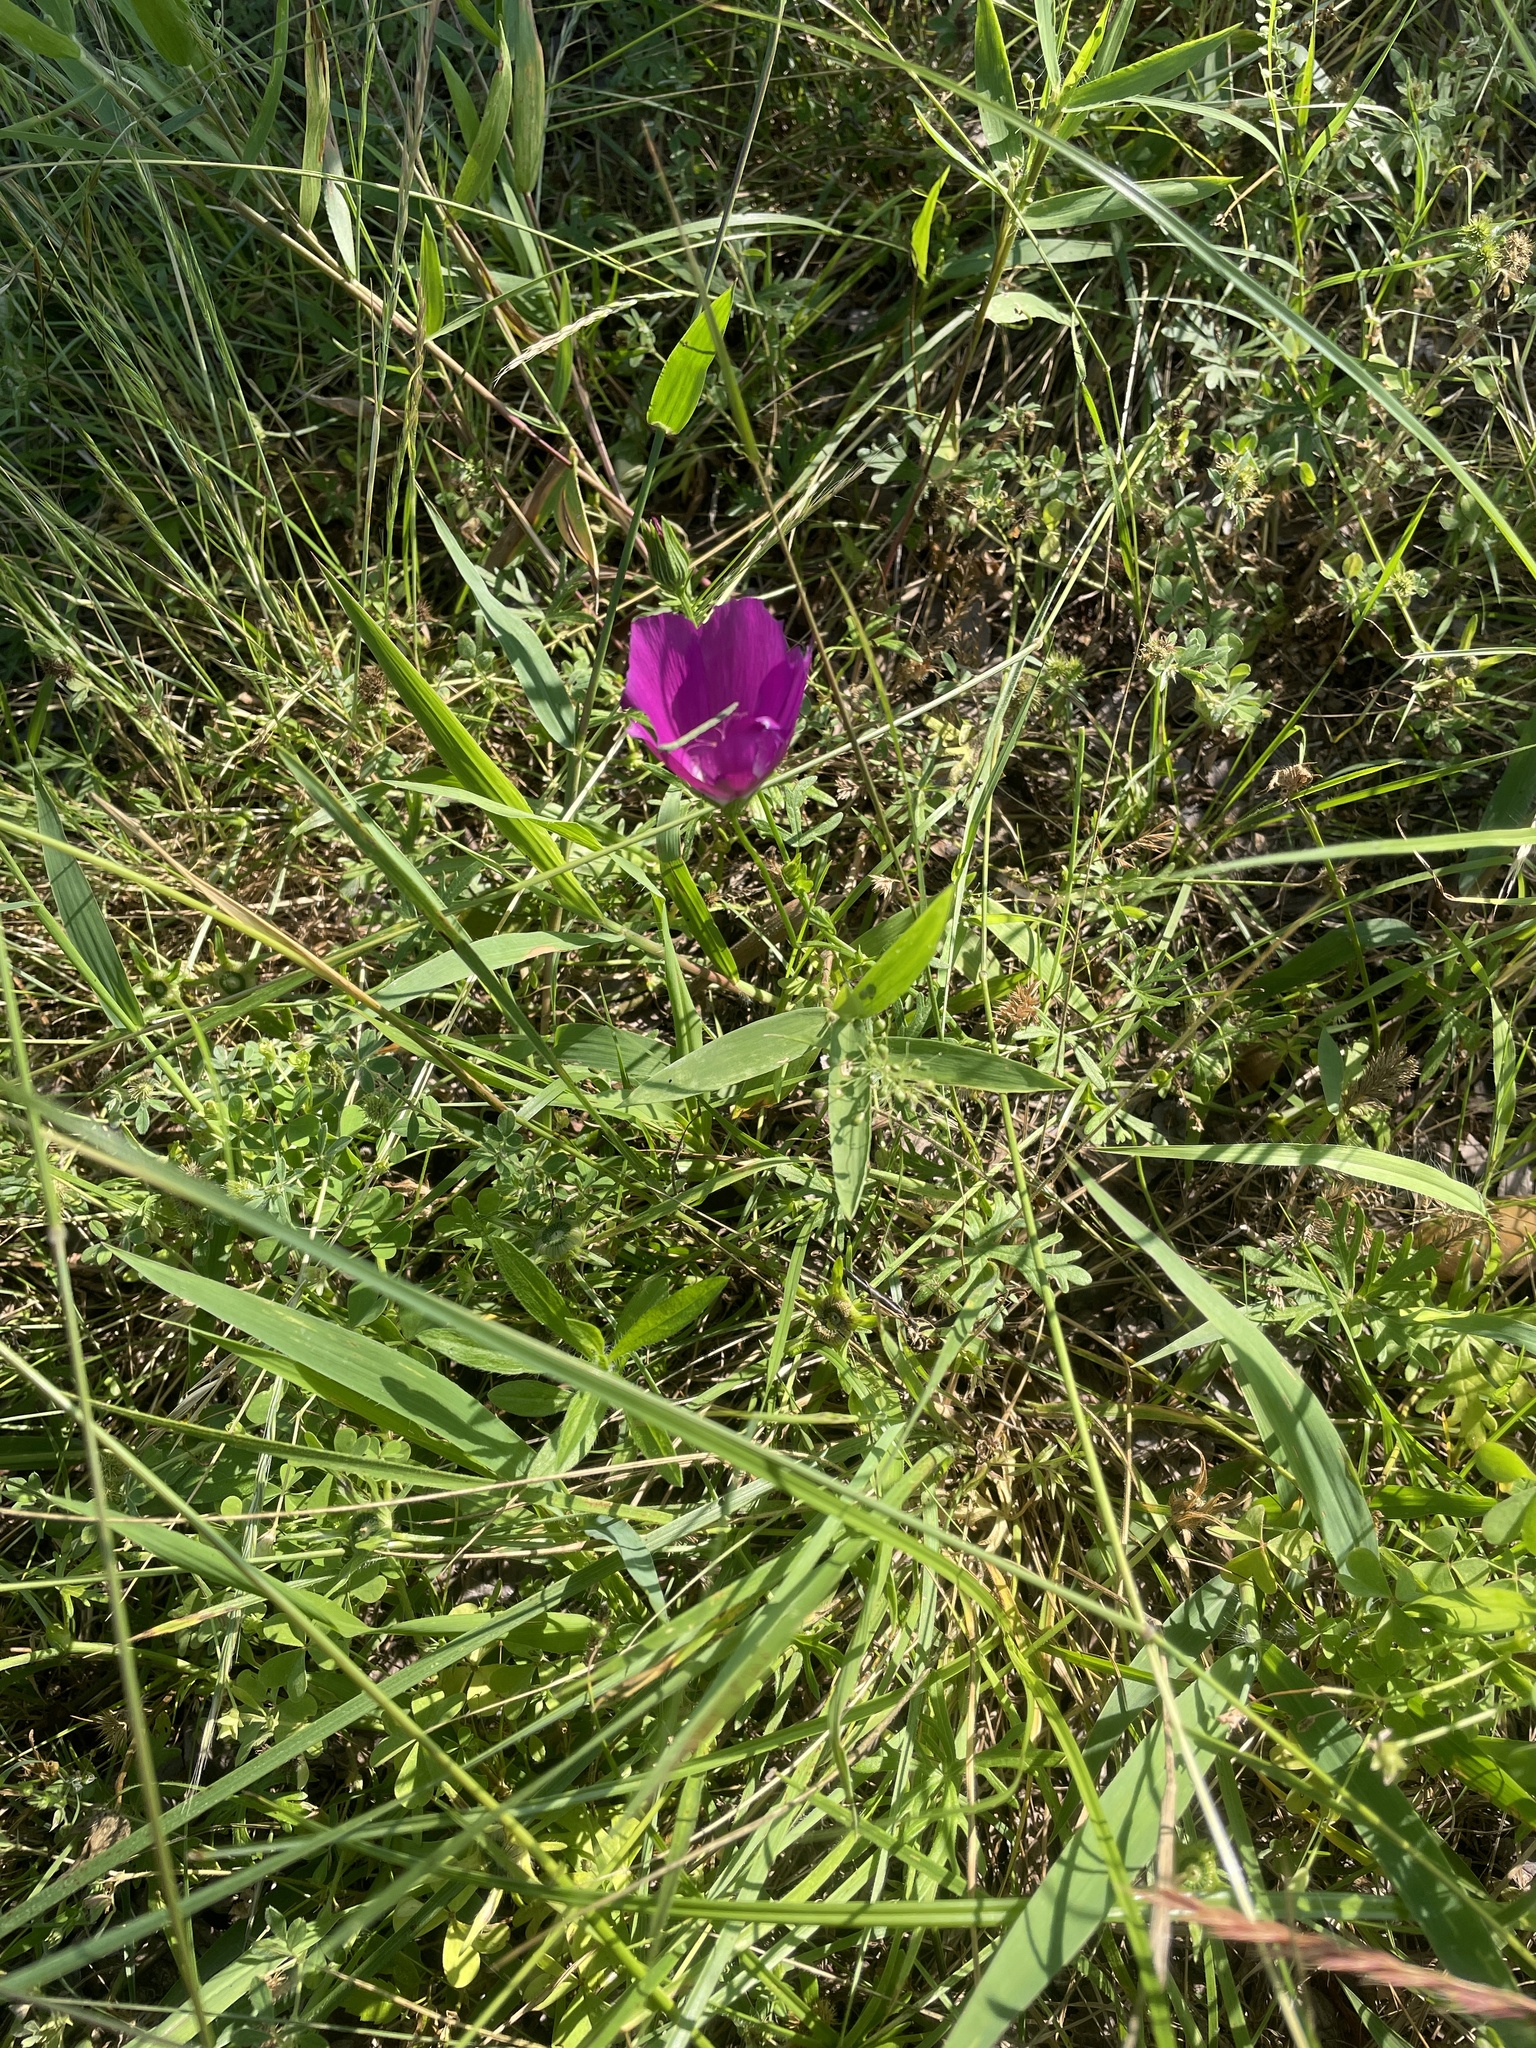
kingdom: Plantae
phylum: Tracheophyta
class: Magnoliopsida
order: Malvales
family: Malvaceae
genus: Callirhoe
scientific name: Callirhoe involucrata
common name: Purple poppy-mallow
